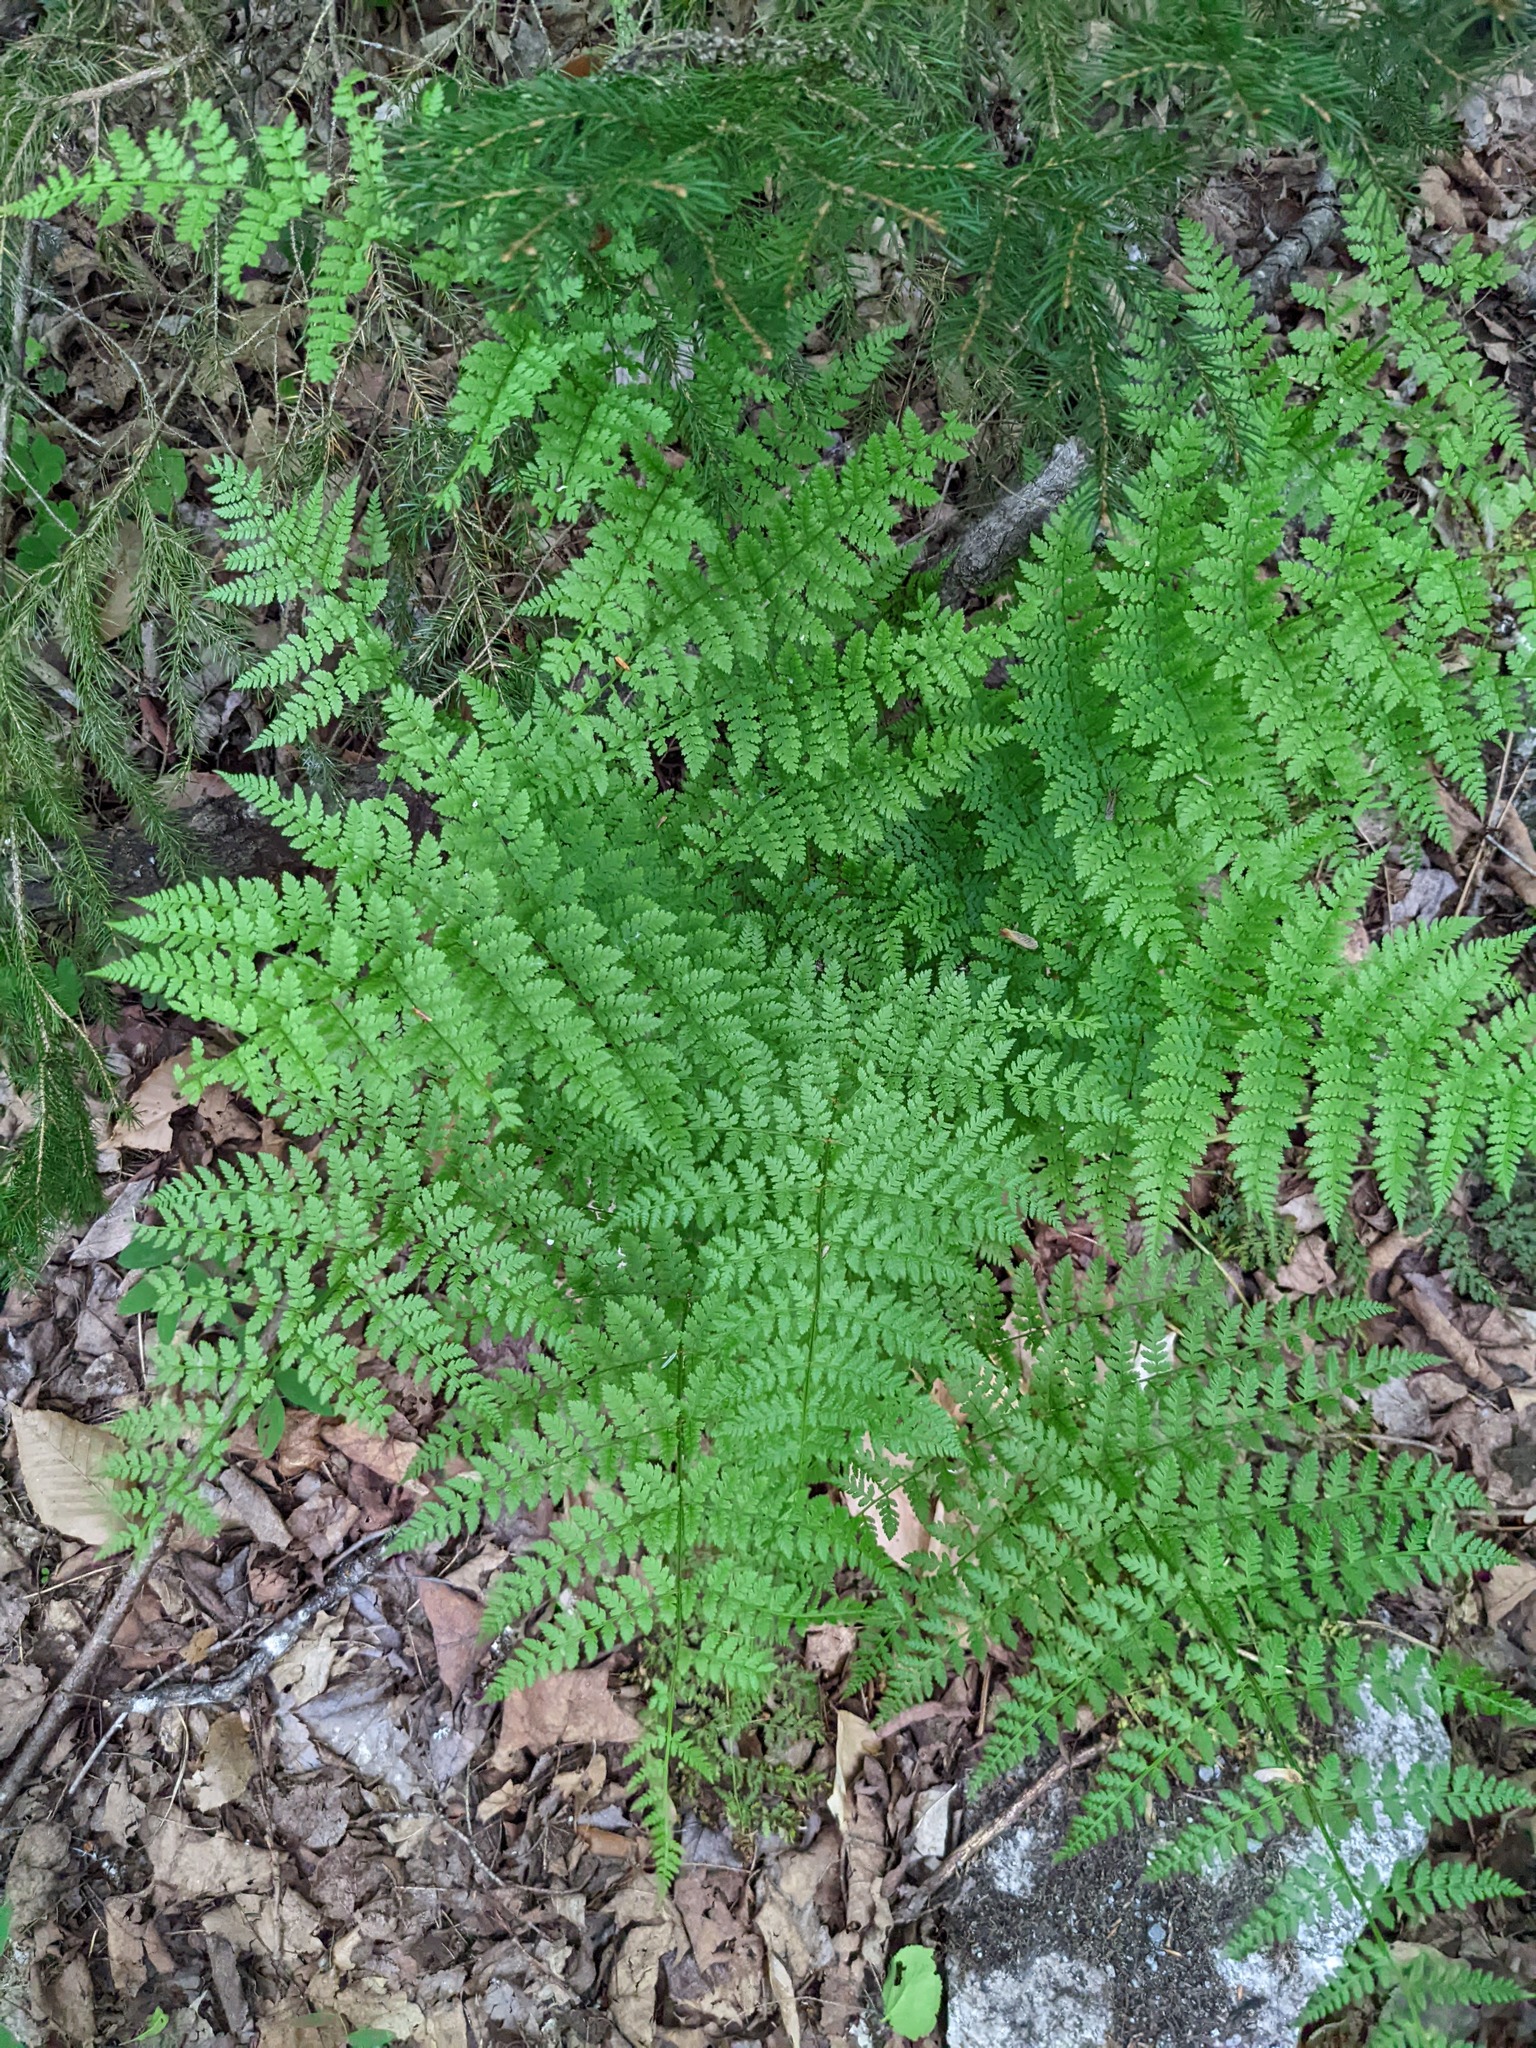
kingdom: Plantae
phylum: Tracheophyta
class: Polypodiopsida
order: Polypodiales
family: Dryopteridaceae
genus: Dryopteris
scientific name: Dryopteris intermedia
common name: Evergreen wood fern
